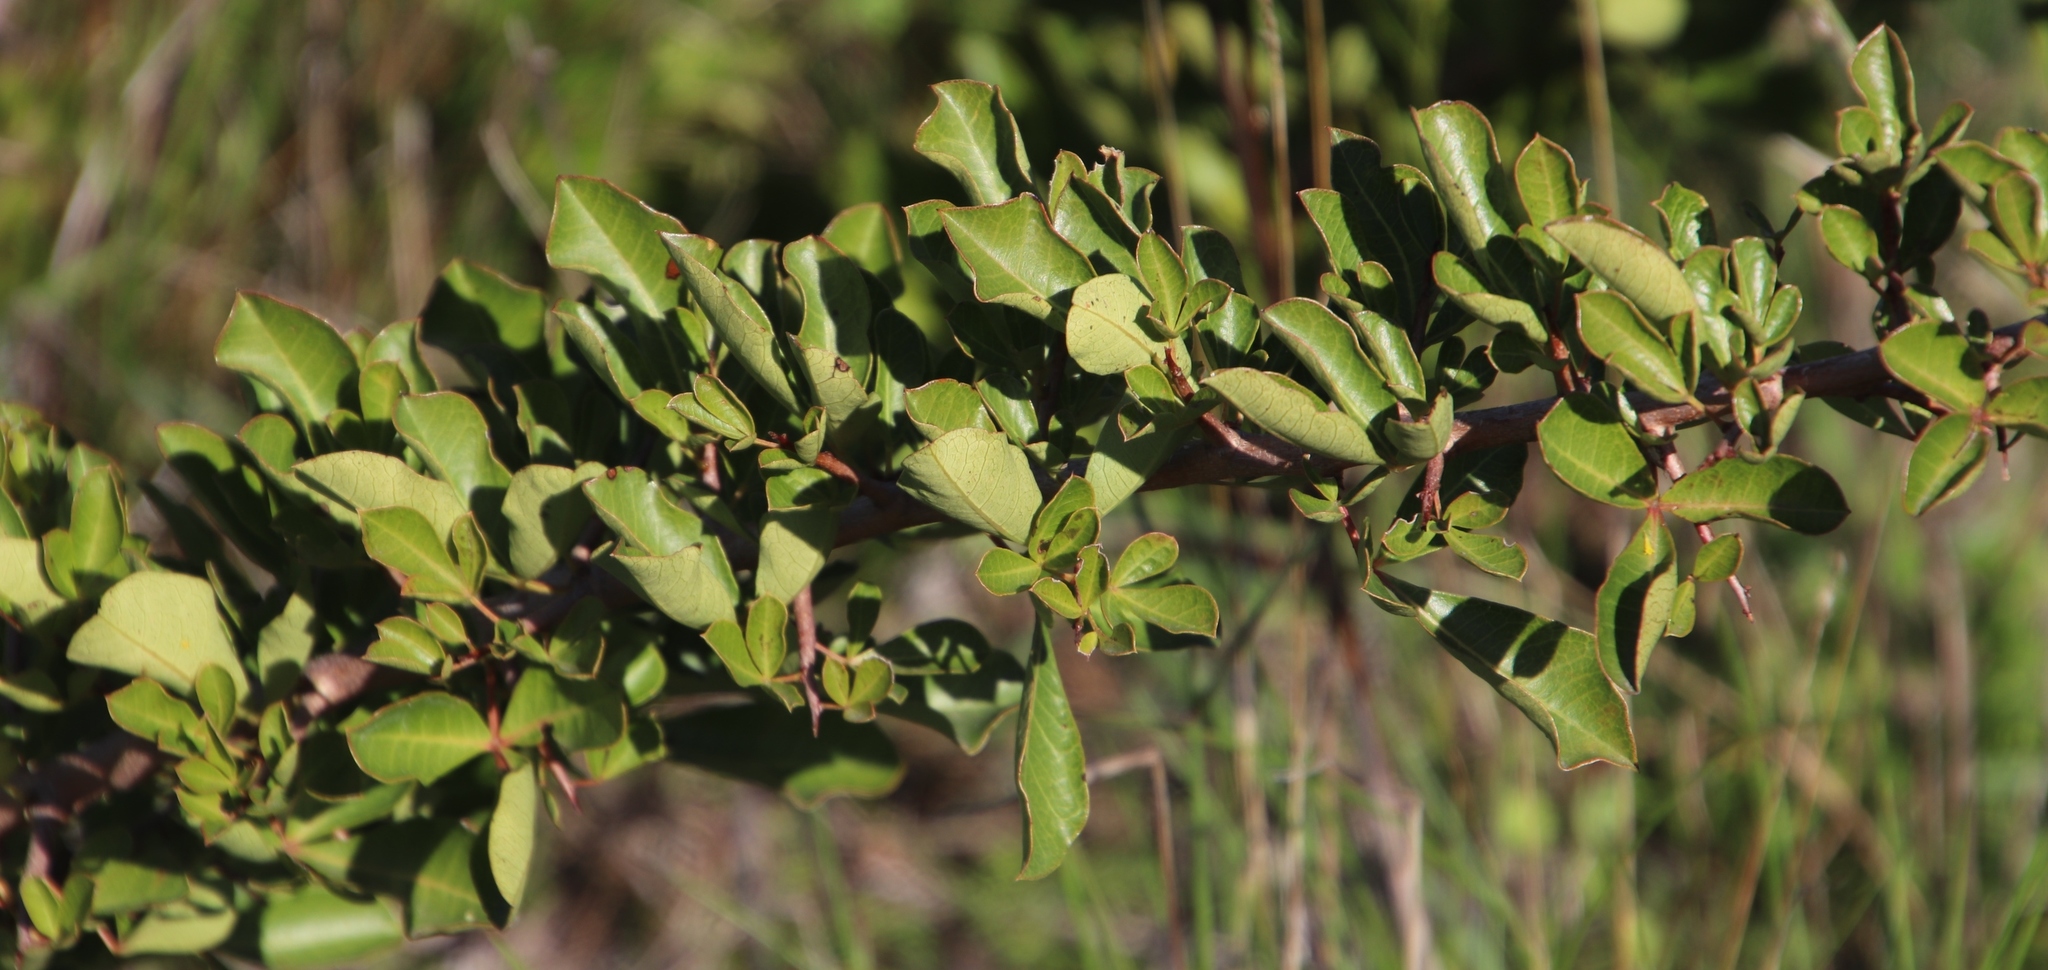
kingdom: Plantae
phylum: Tracheophyta
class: Magnoliopsida
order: Sapindales
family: Anacardiaceae
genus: Searsia
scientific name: Searsia laevigata
